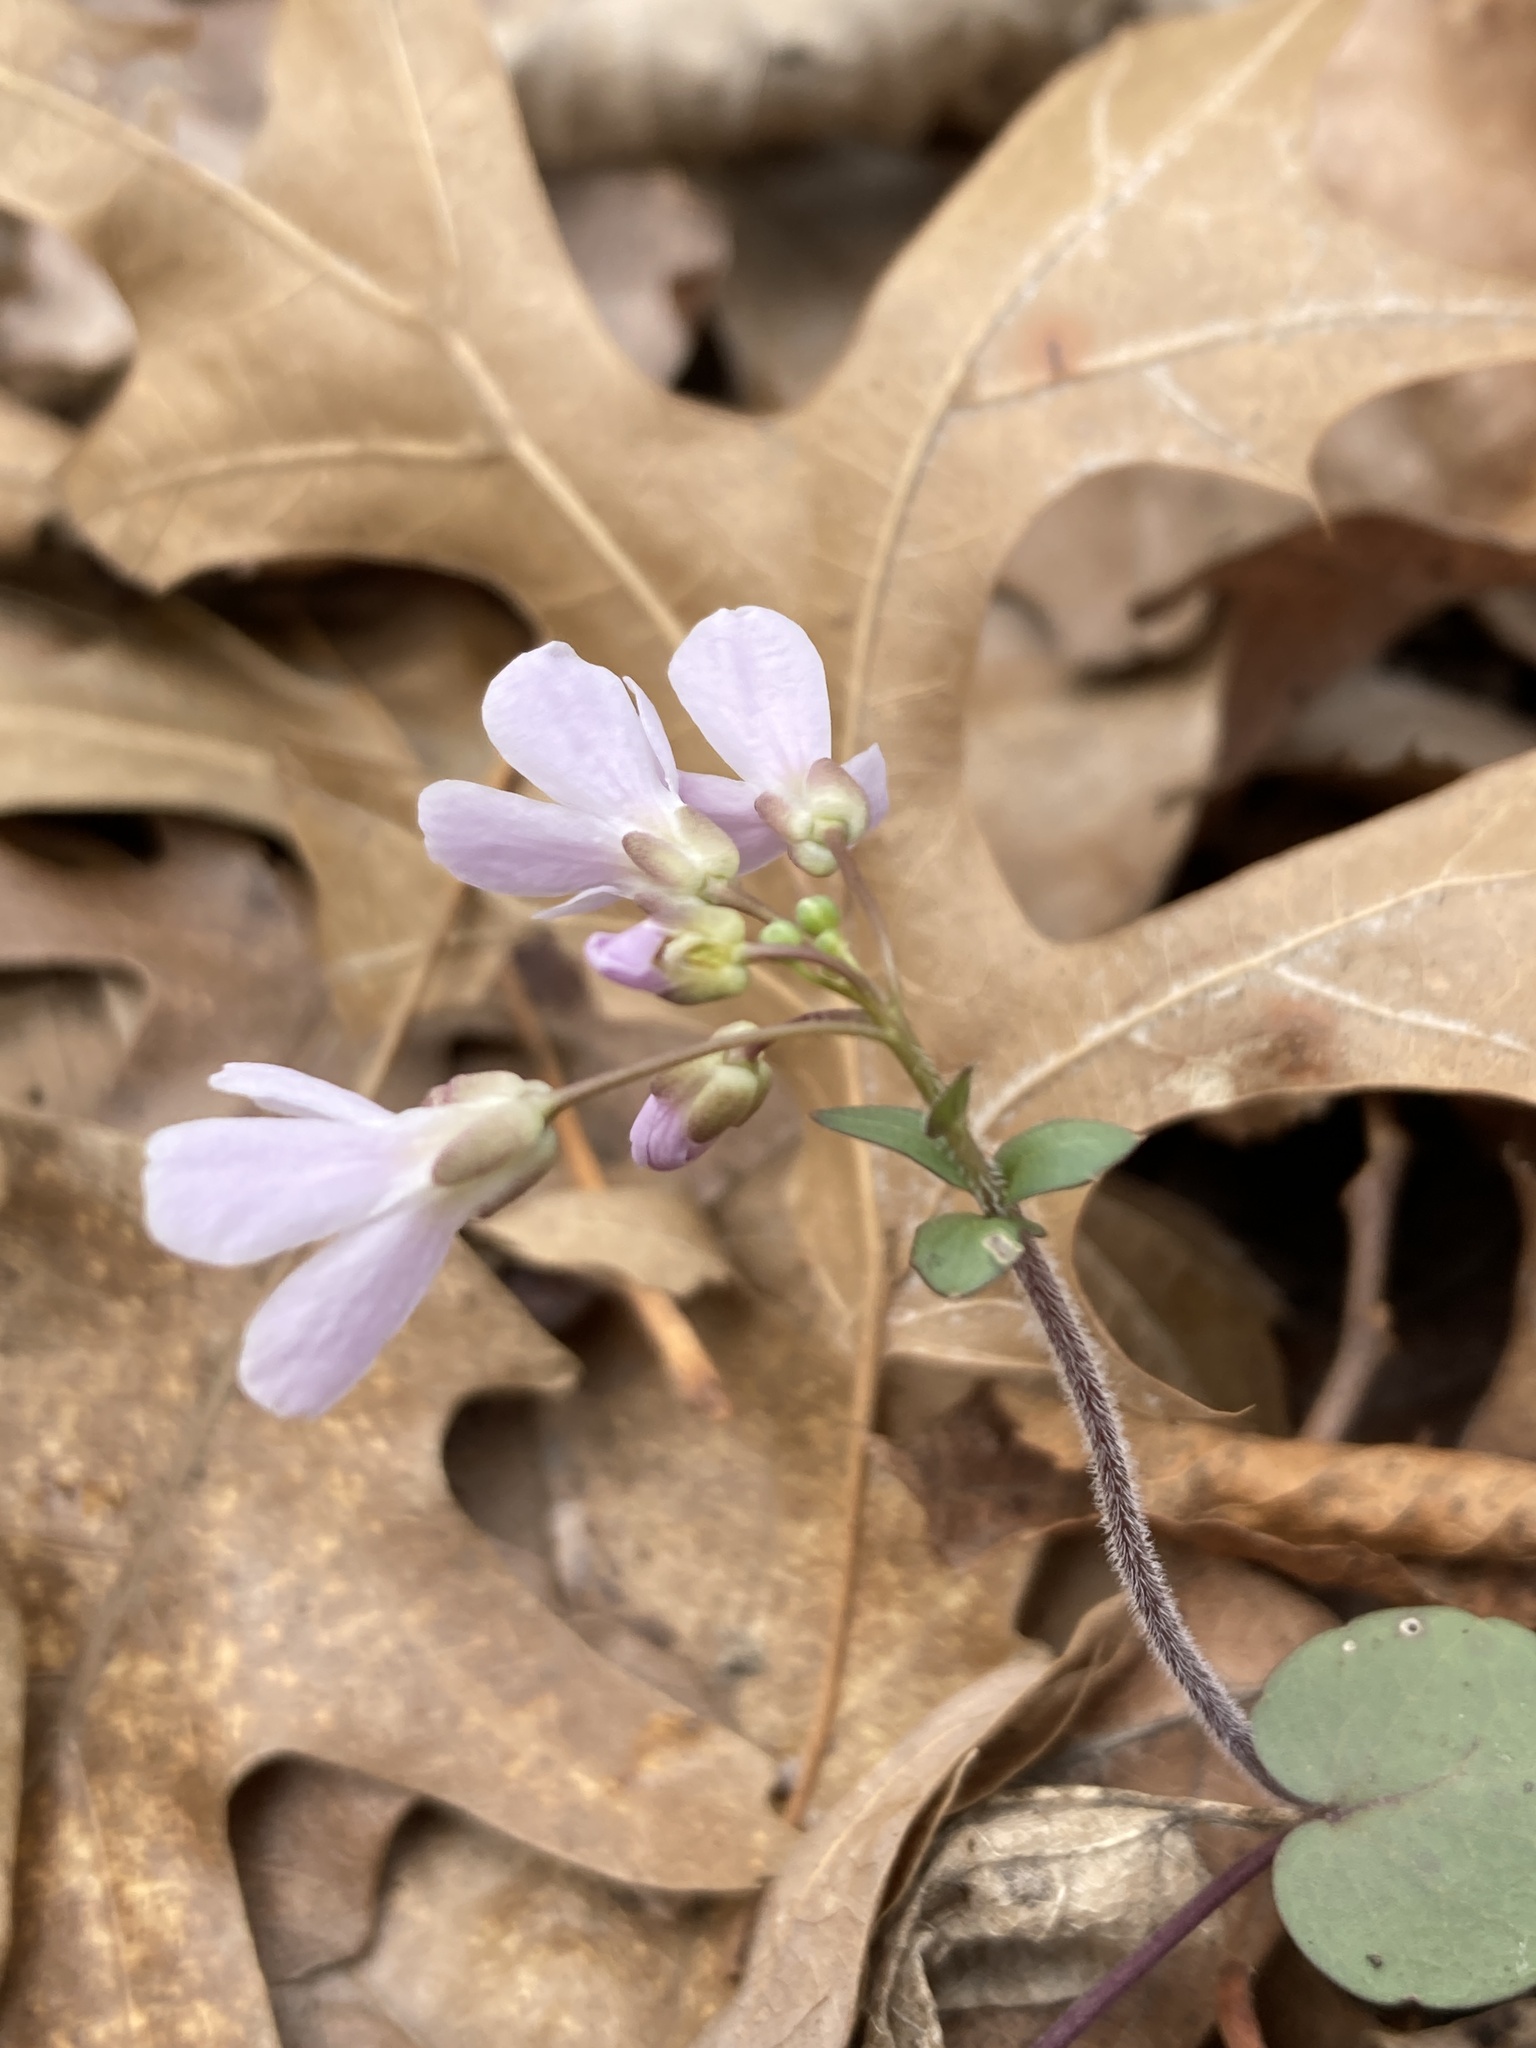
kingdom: Plantae
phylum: Tracheophyta
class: Magnoliopsida
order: Brassicales
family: Brassicaceae
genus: Cardamine
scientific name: Cardamine douglassii
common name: Purple cress
